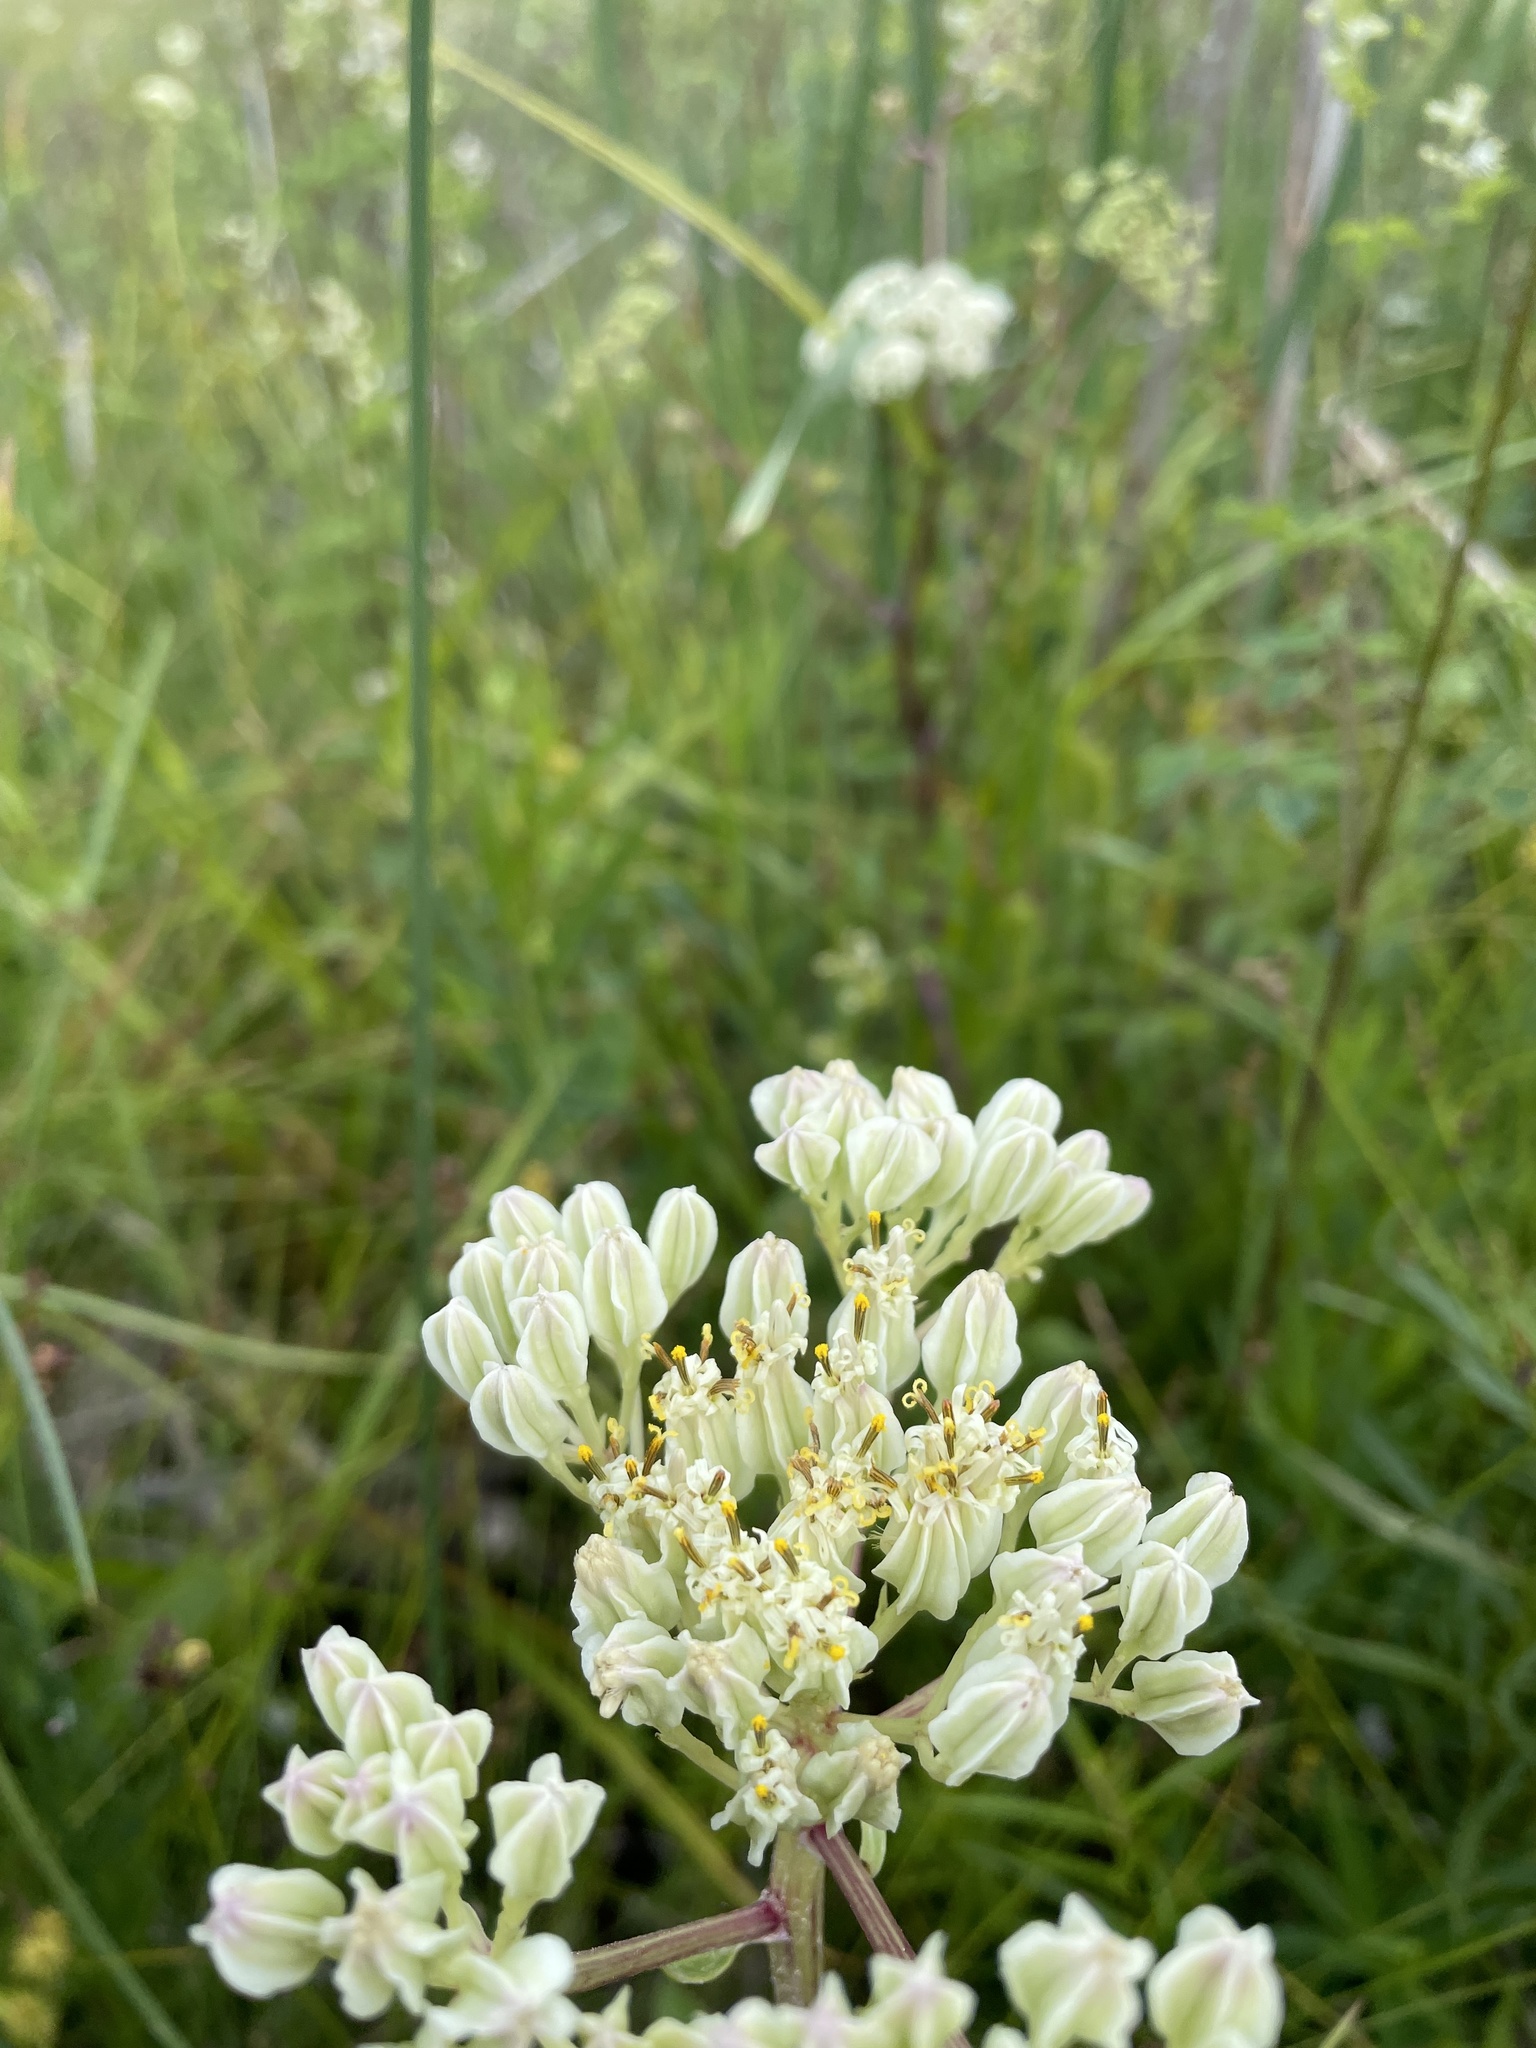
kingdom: Plantae
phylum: Tracheophyta
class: Magnoliopsida
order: Asterales
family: Asteraceae
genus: Arnoglossum
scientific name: Arnoglossum plantagineum
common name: Groove-stemmed indian-plantain
